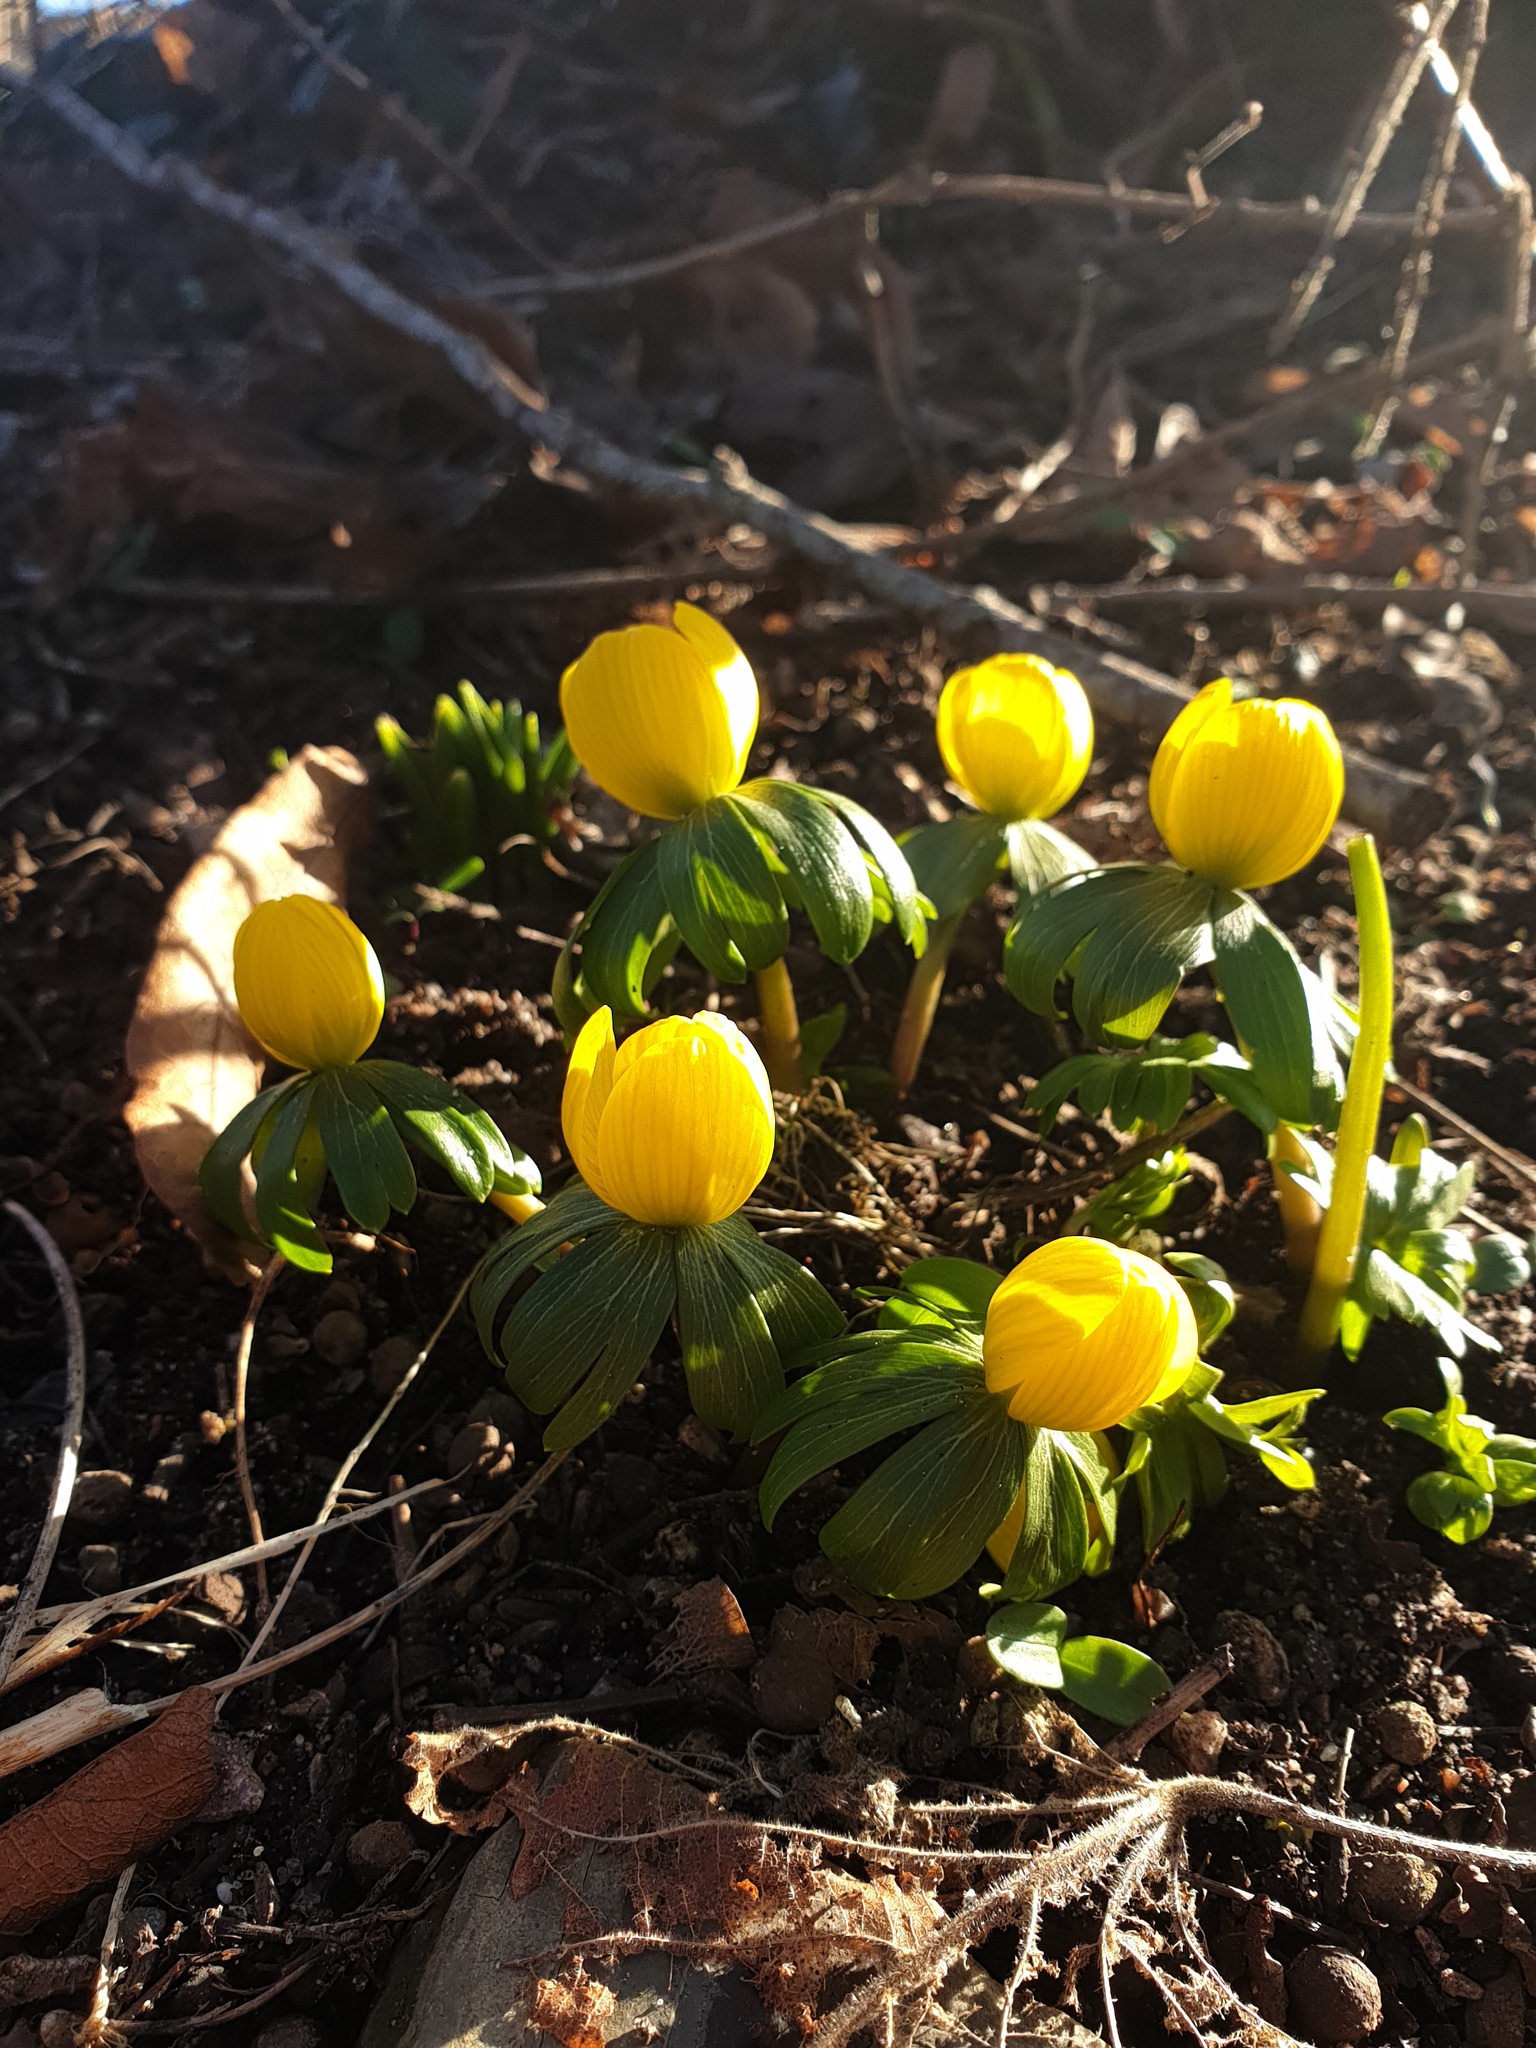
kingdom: Plantae
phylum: Tracheophyta
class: Magnoliopsida
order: Ranunculales
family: Ranunculaceae
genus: Eranthis
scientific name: Eranthis hyemalis
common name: Winter aconite
